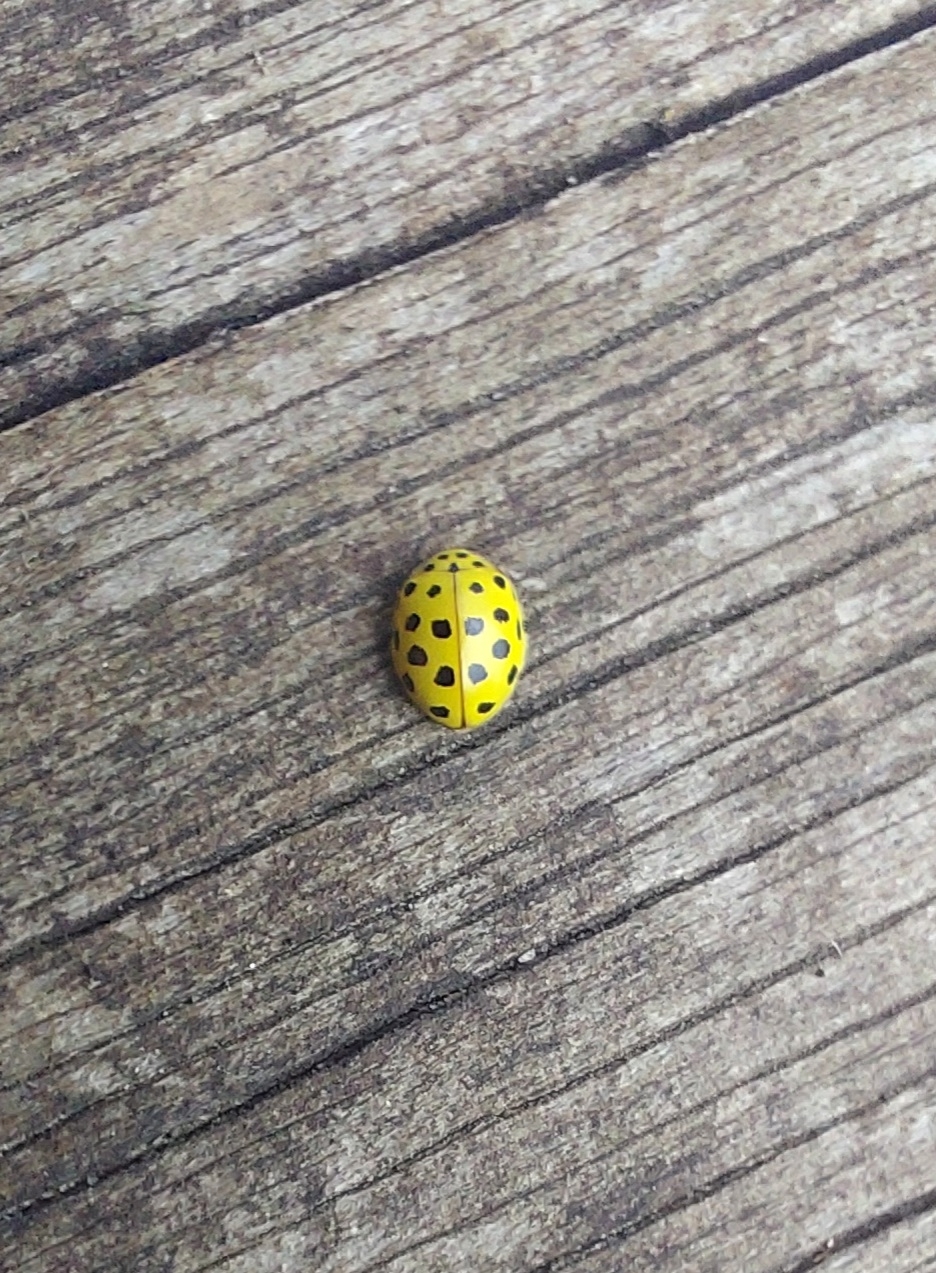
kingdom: Animalia
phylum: Arthropoda
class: Insecta
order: Coleoptera
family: Coccinellidae
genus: Psyllobora
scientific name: Psyllobora vigintiduopunctata
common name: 22-spot ladybird
